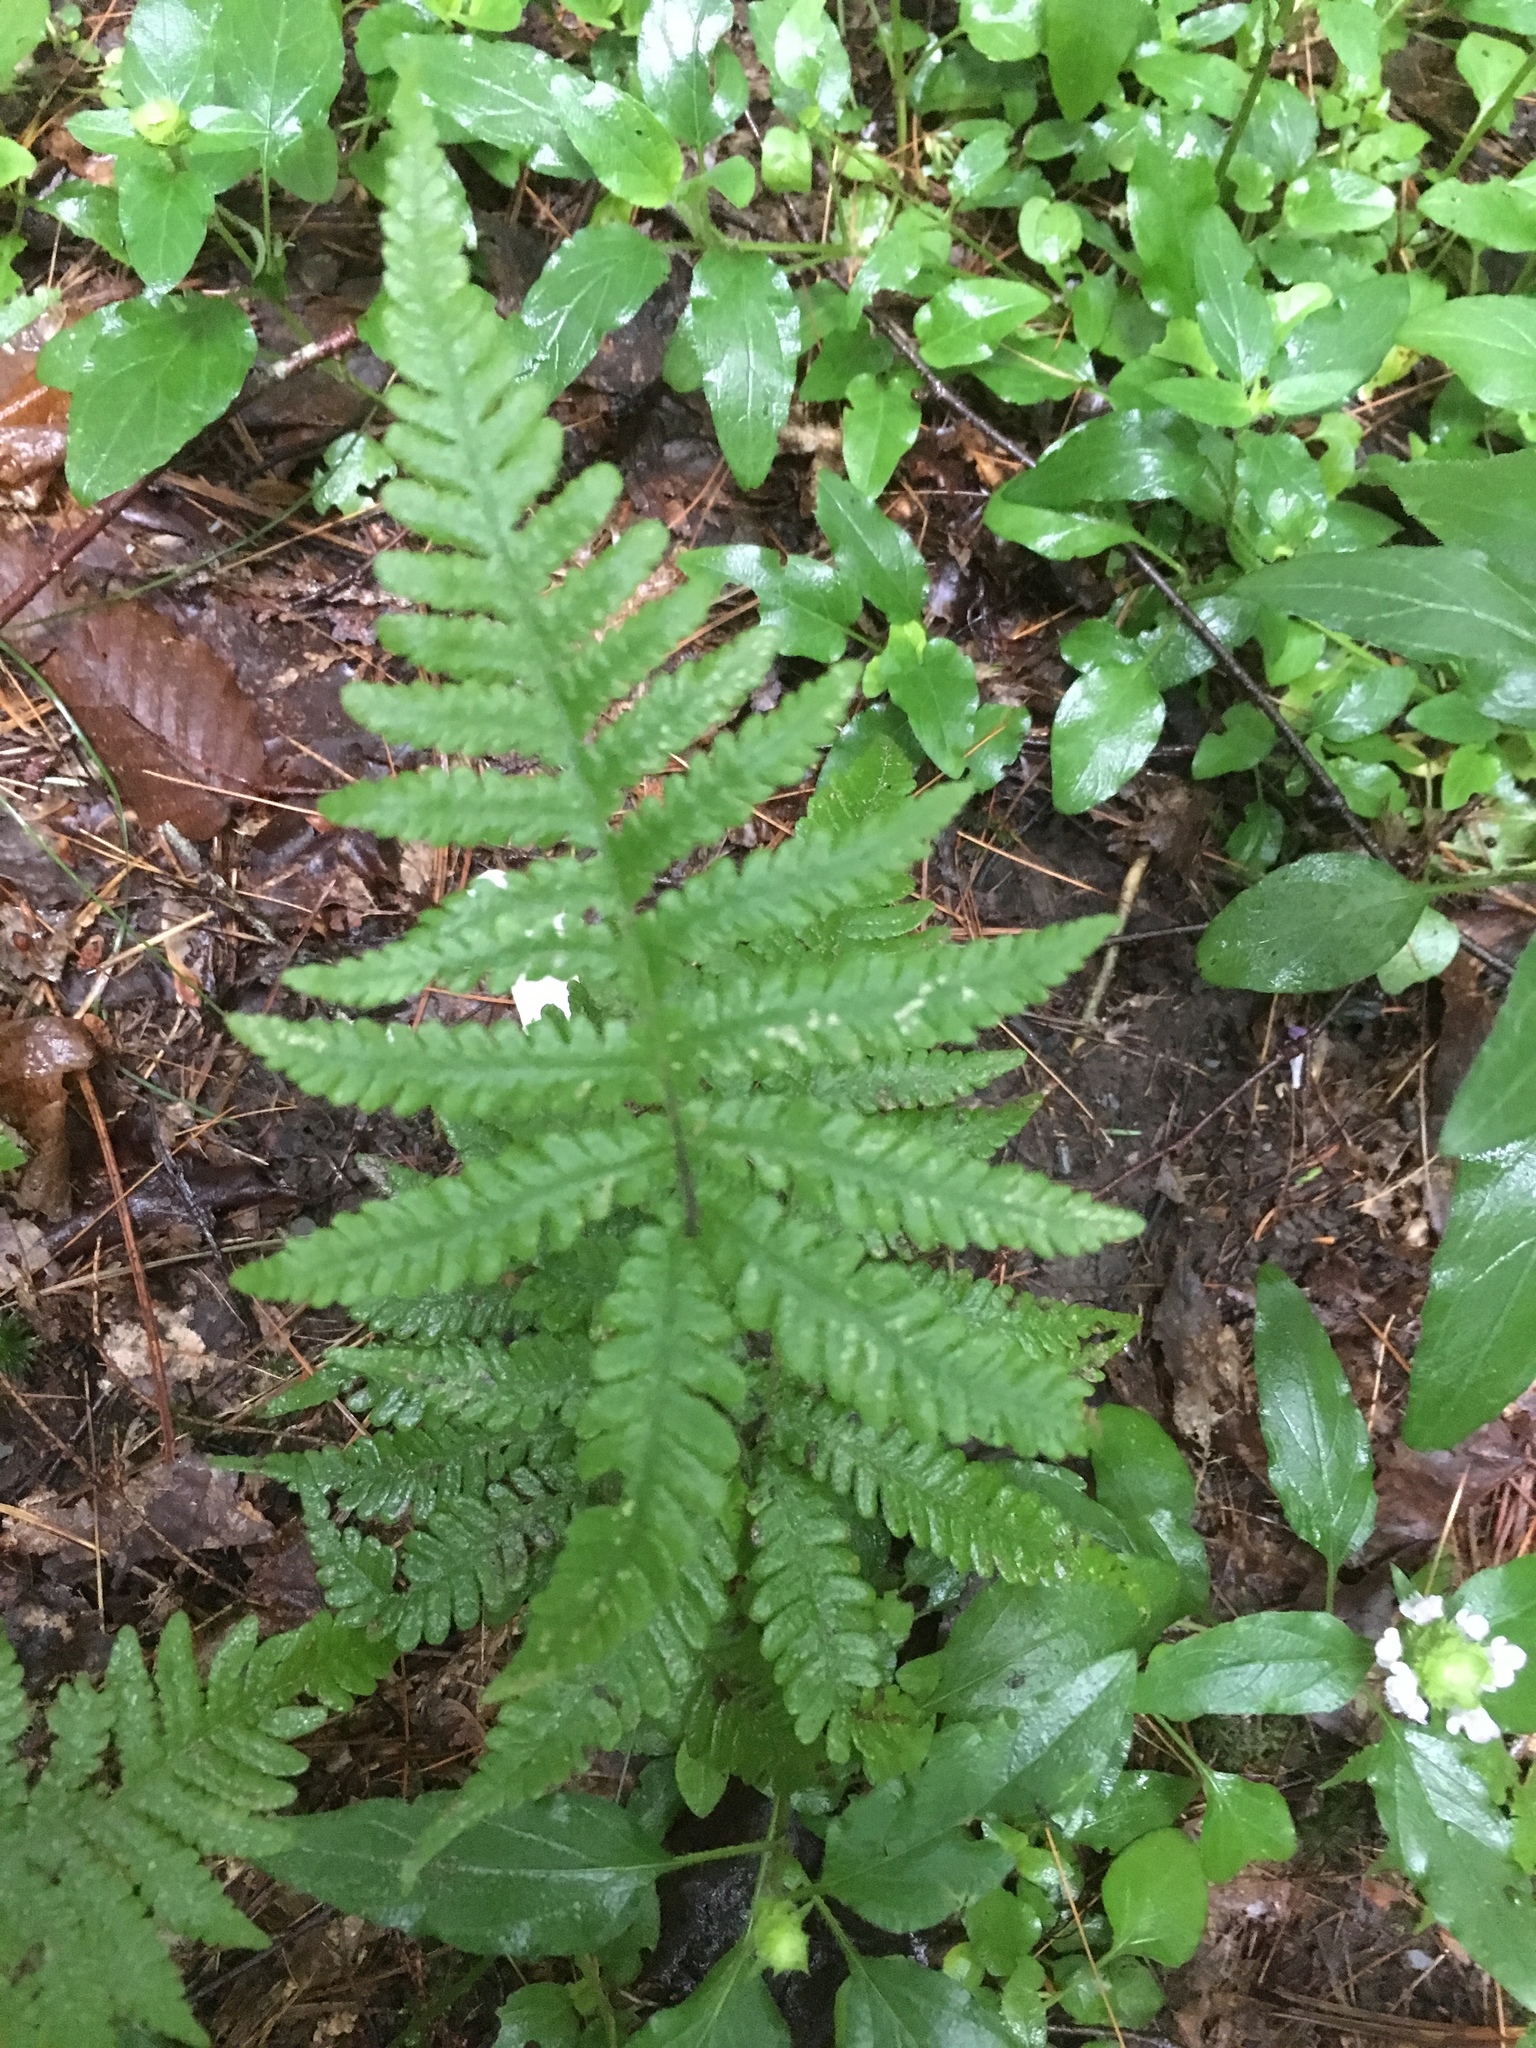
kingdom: Plantae
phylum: Tracheophyta
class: Polypodiopsida
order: Polypodiales
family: Thelypteridaceae
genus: Phegopteris
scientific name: Phegopteris connectilis
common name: Beech fern
